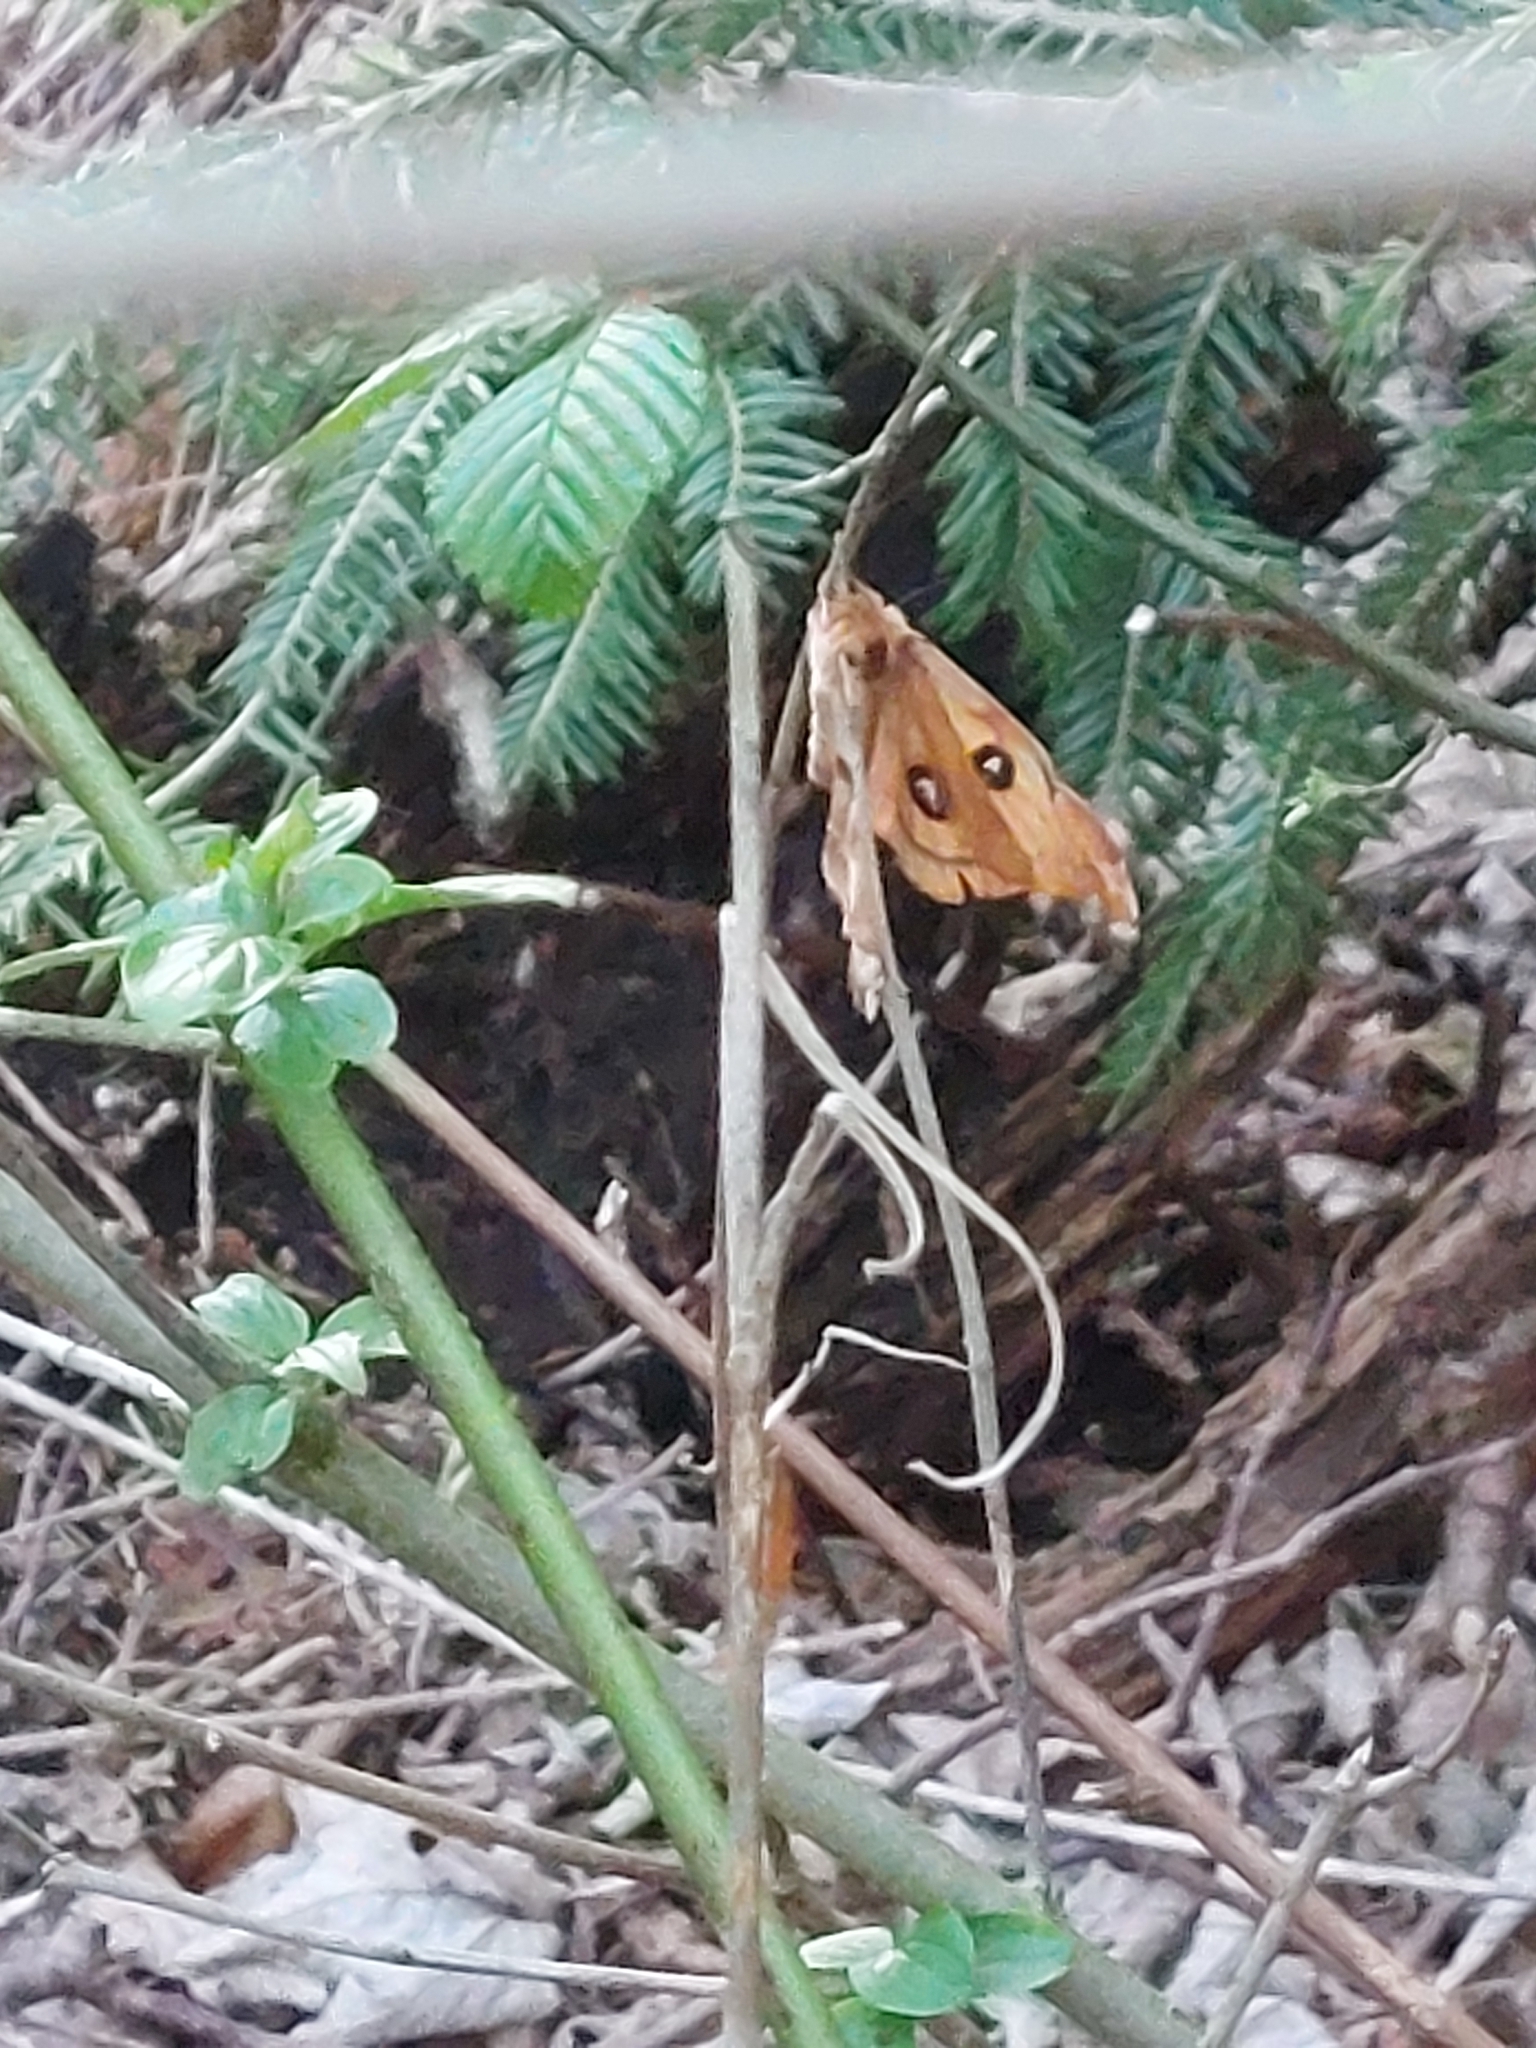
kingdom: Animalia
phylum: Arthropoda
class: Insecta
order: Lepidoptera
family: Saturniidae
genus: Aglia
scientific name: Aglia tau
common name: Tau emperor
